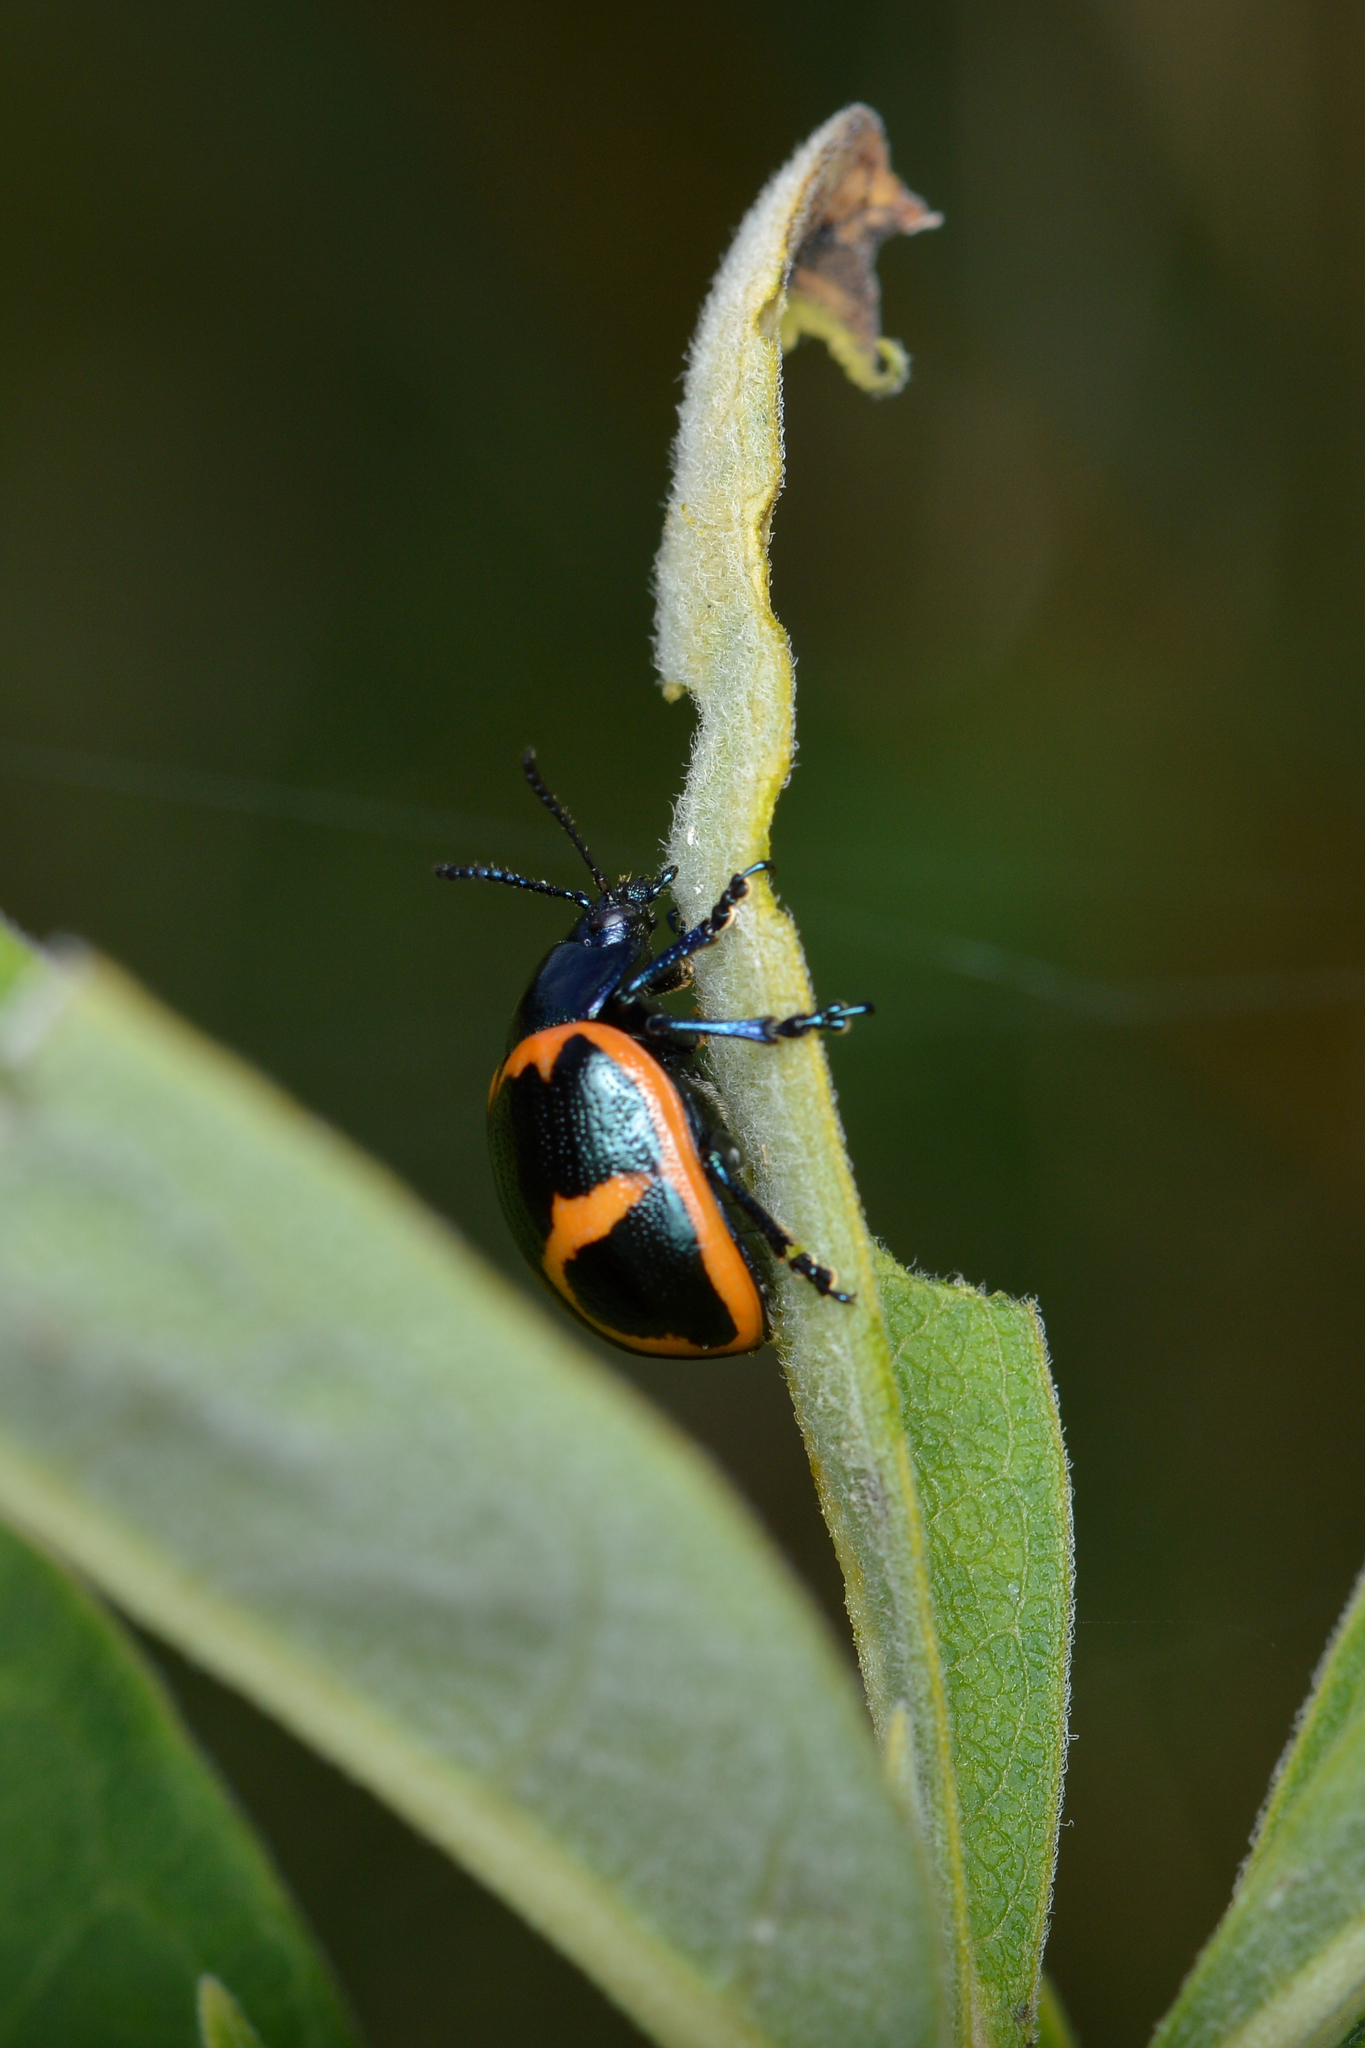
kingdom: Animalia
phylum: Arthropoda
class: Insecta
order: Coleoptera
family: Chrysomelidae
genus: Labidomera
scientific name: Labidomera clivicollis
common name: Swamp milkweed leaf beetle
